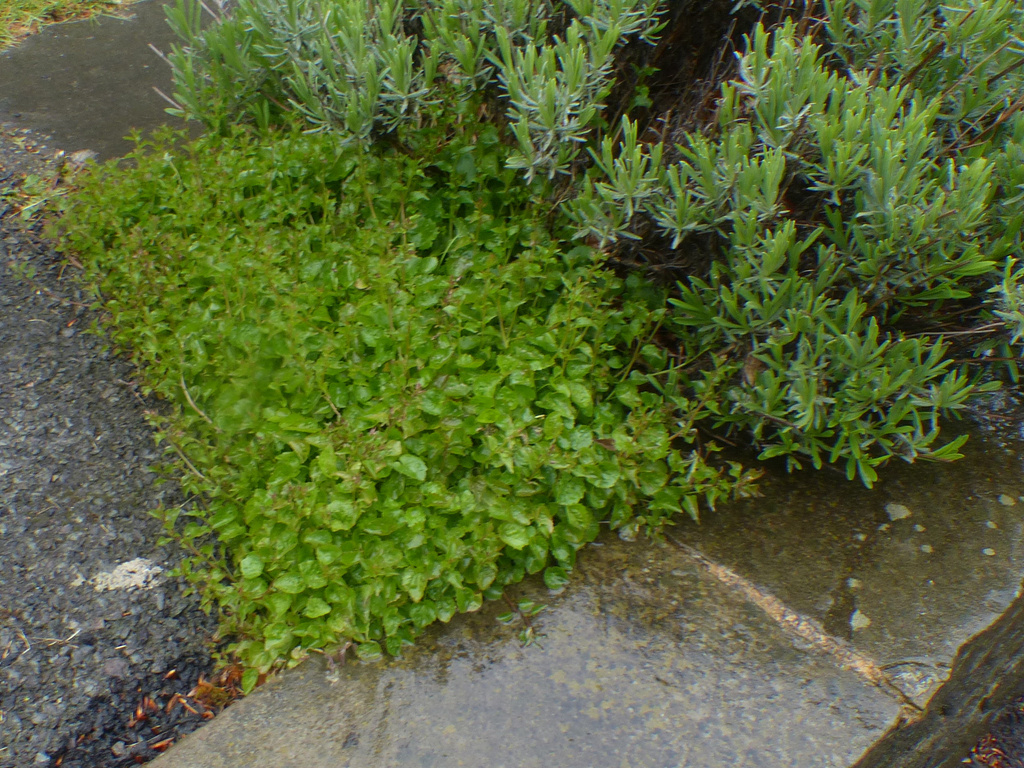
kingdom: Plantae
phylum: Tracheophyta
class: Magnoliopsida
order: Asterales
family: Campanulaceae
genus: Campanula
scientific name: Campanula poscharskyana
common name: Trailing bellflower
